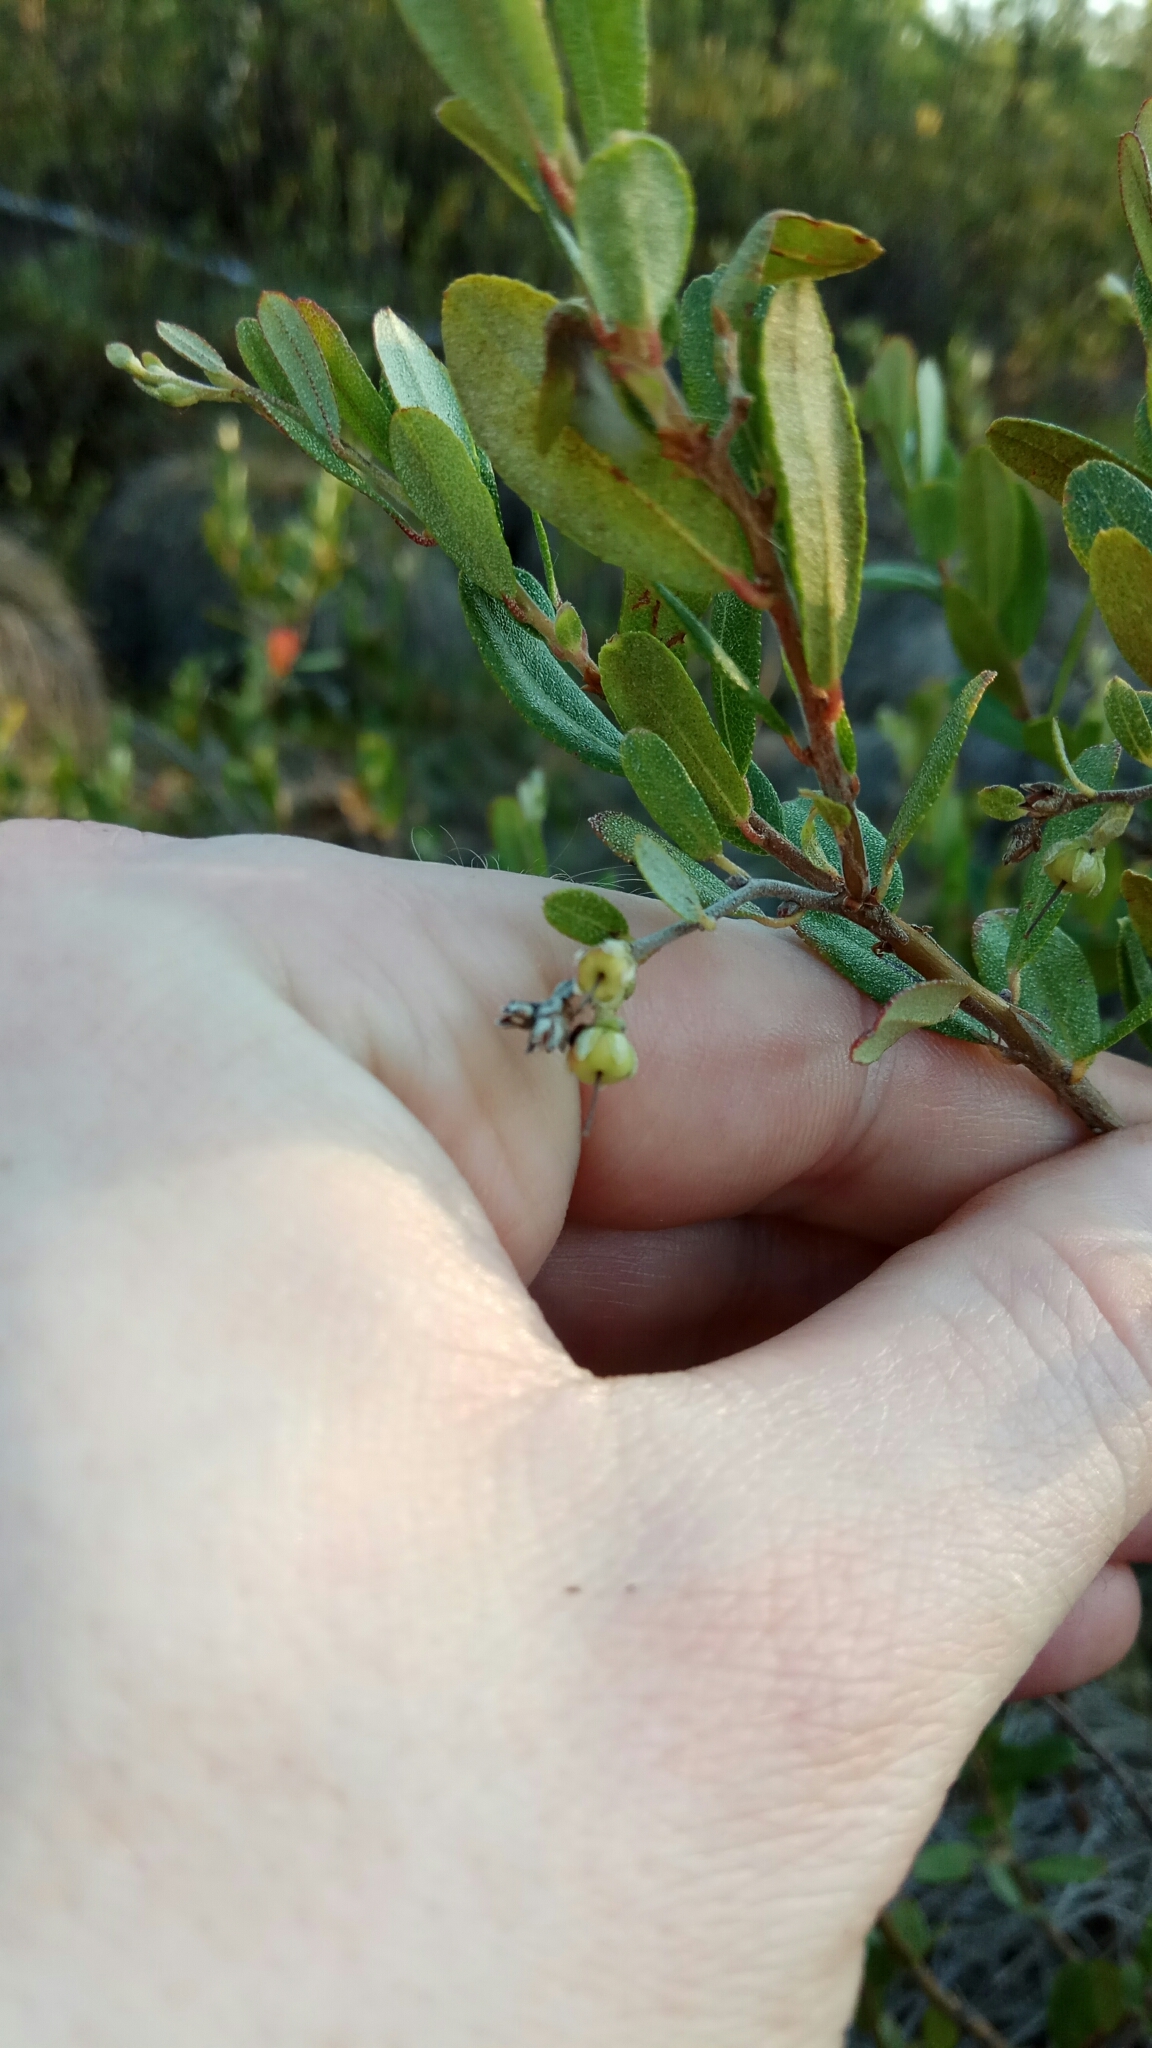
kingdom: Plantae
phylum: Tracheophyta
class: Magnoliopsida
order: Ericales
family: Ericaceae
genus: Chamaedaphne
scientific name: Chamaedaphne calyculata
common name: Leatherleaf
